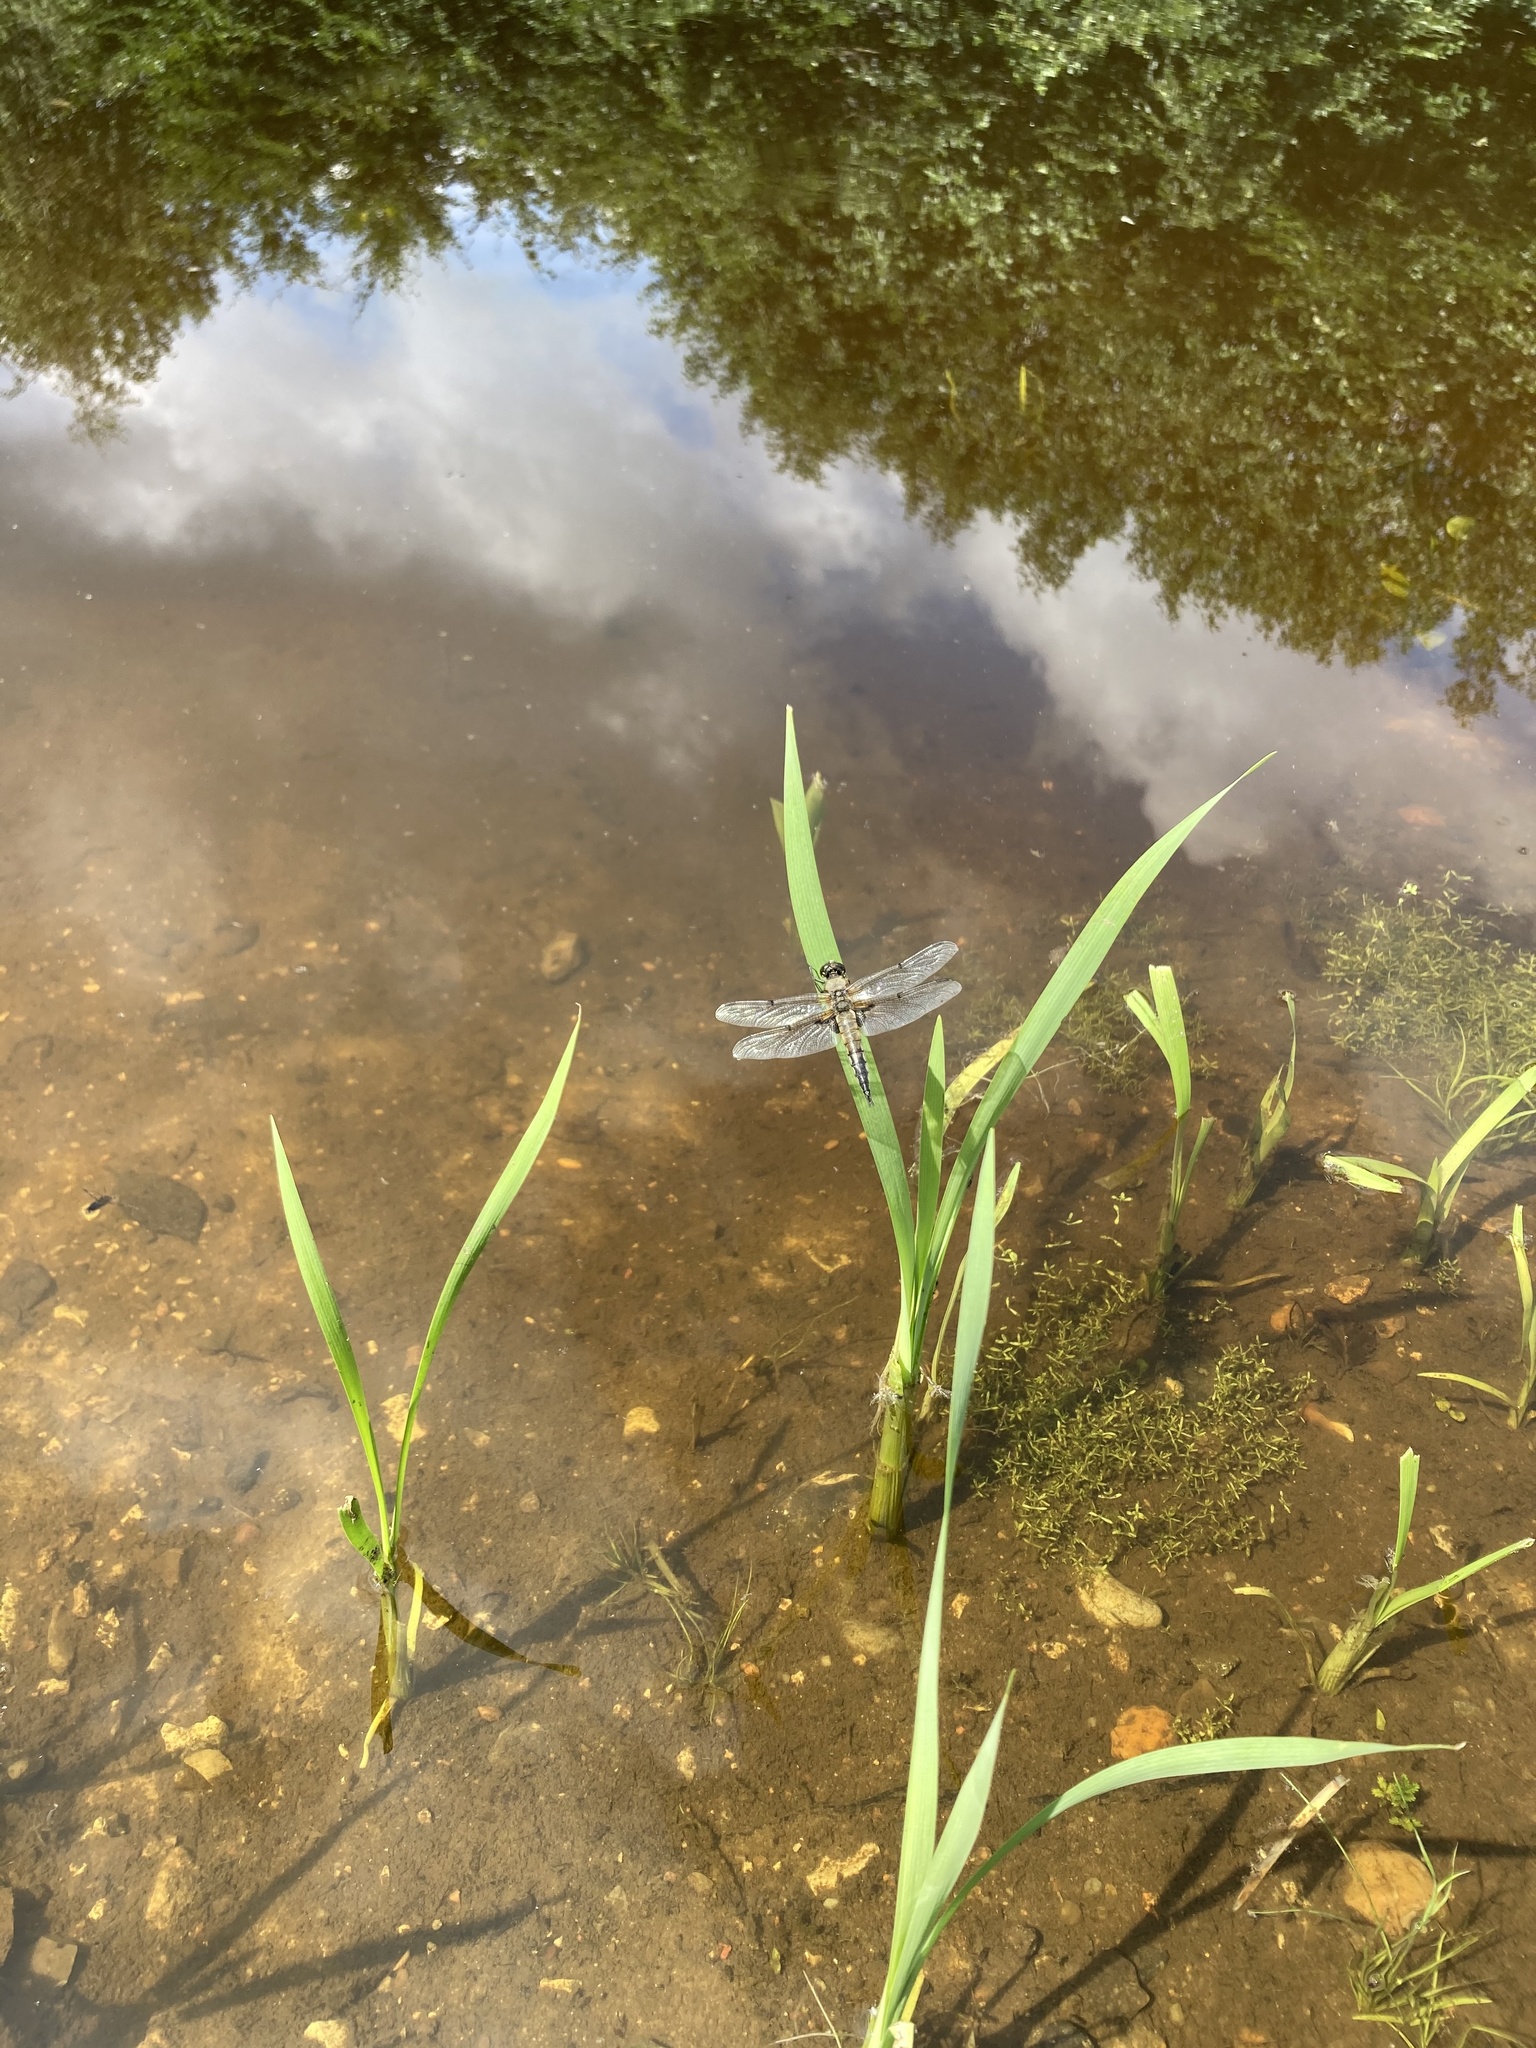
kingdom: Animalia
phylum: Arthropoda
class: Insecta
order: Odonata
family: Libellulidae
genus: Libellula
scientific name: Libellula quadrimaculata
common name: Four-spotted chaser
